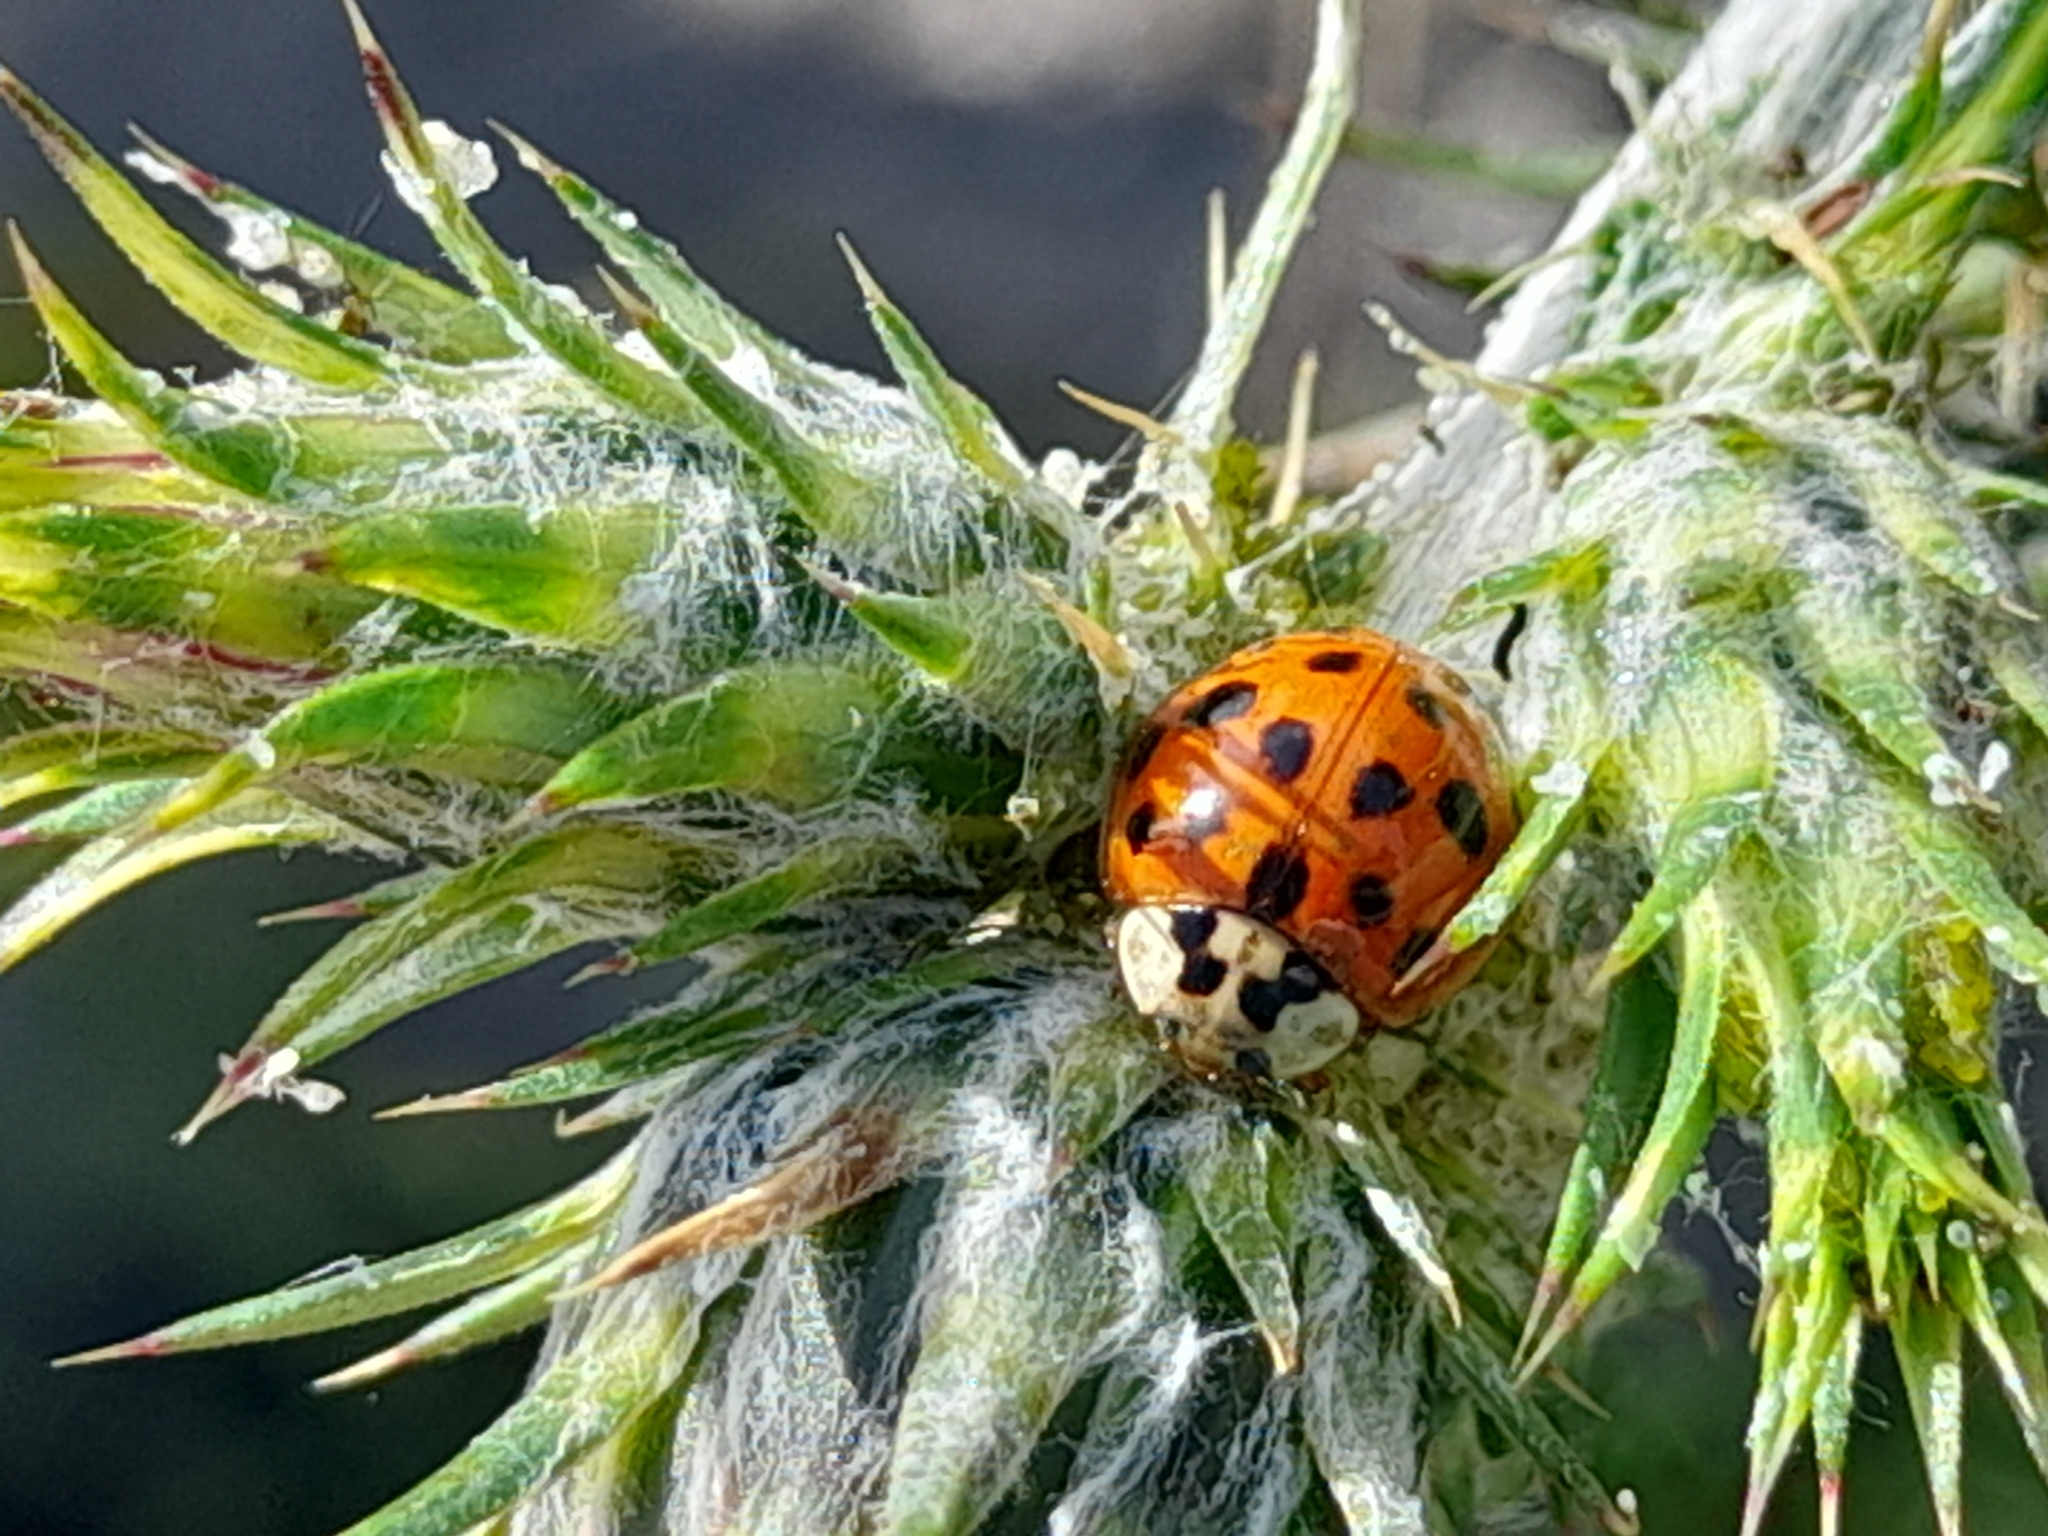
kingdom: Animalia
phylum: Arthropoda
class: Insecta
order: Coleoptera
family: Coccinellidae
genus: Harmonia
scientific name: Harmonia axyridis
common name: Harlequin ladybird
